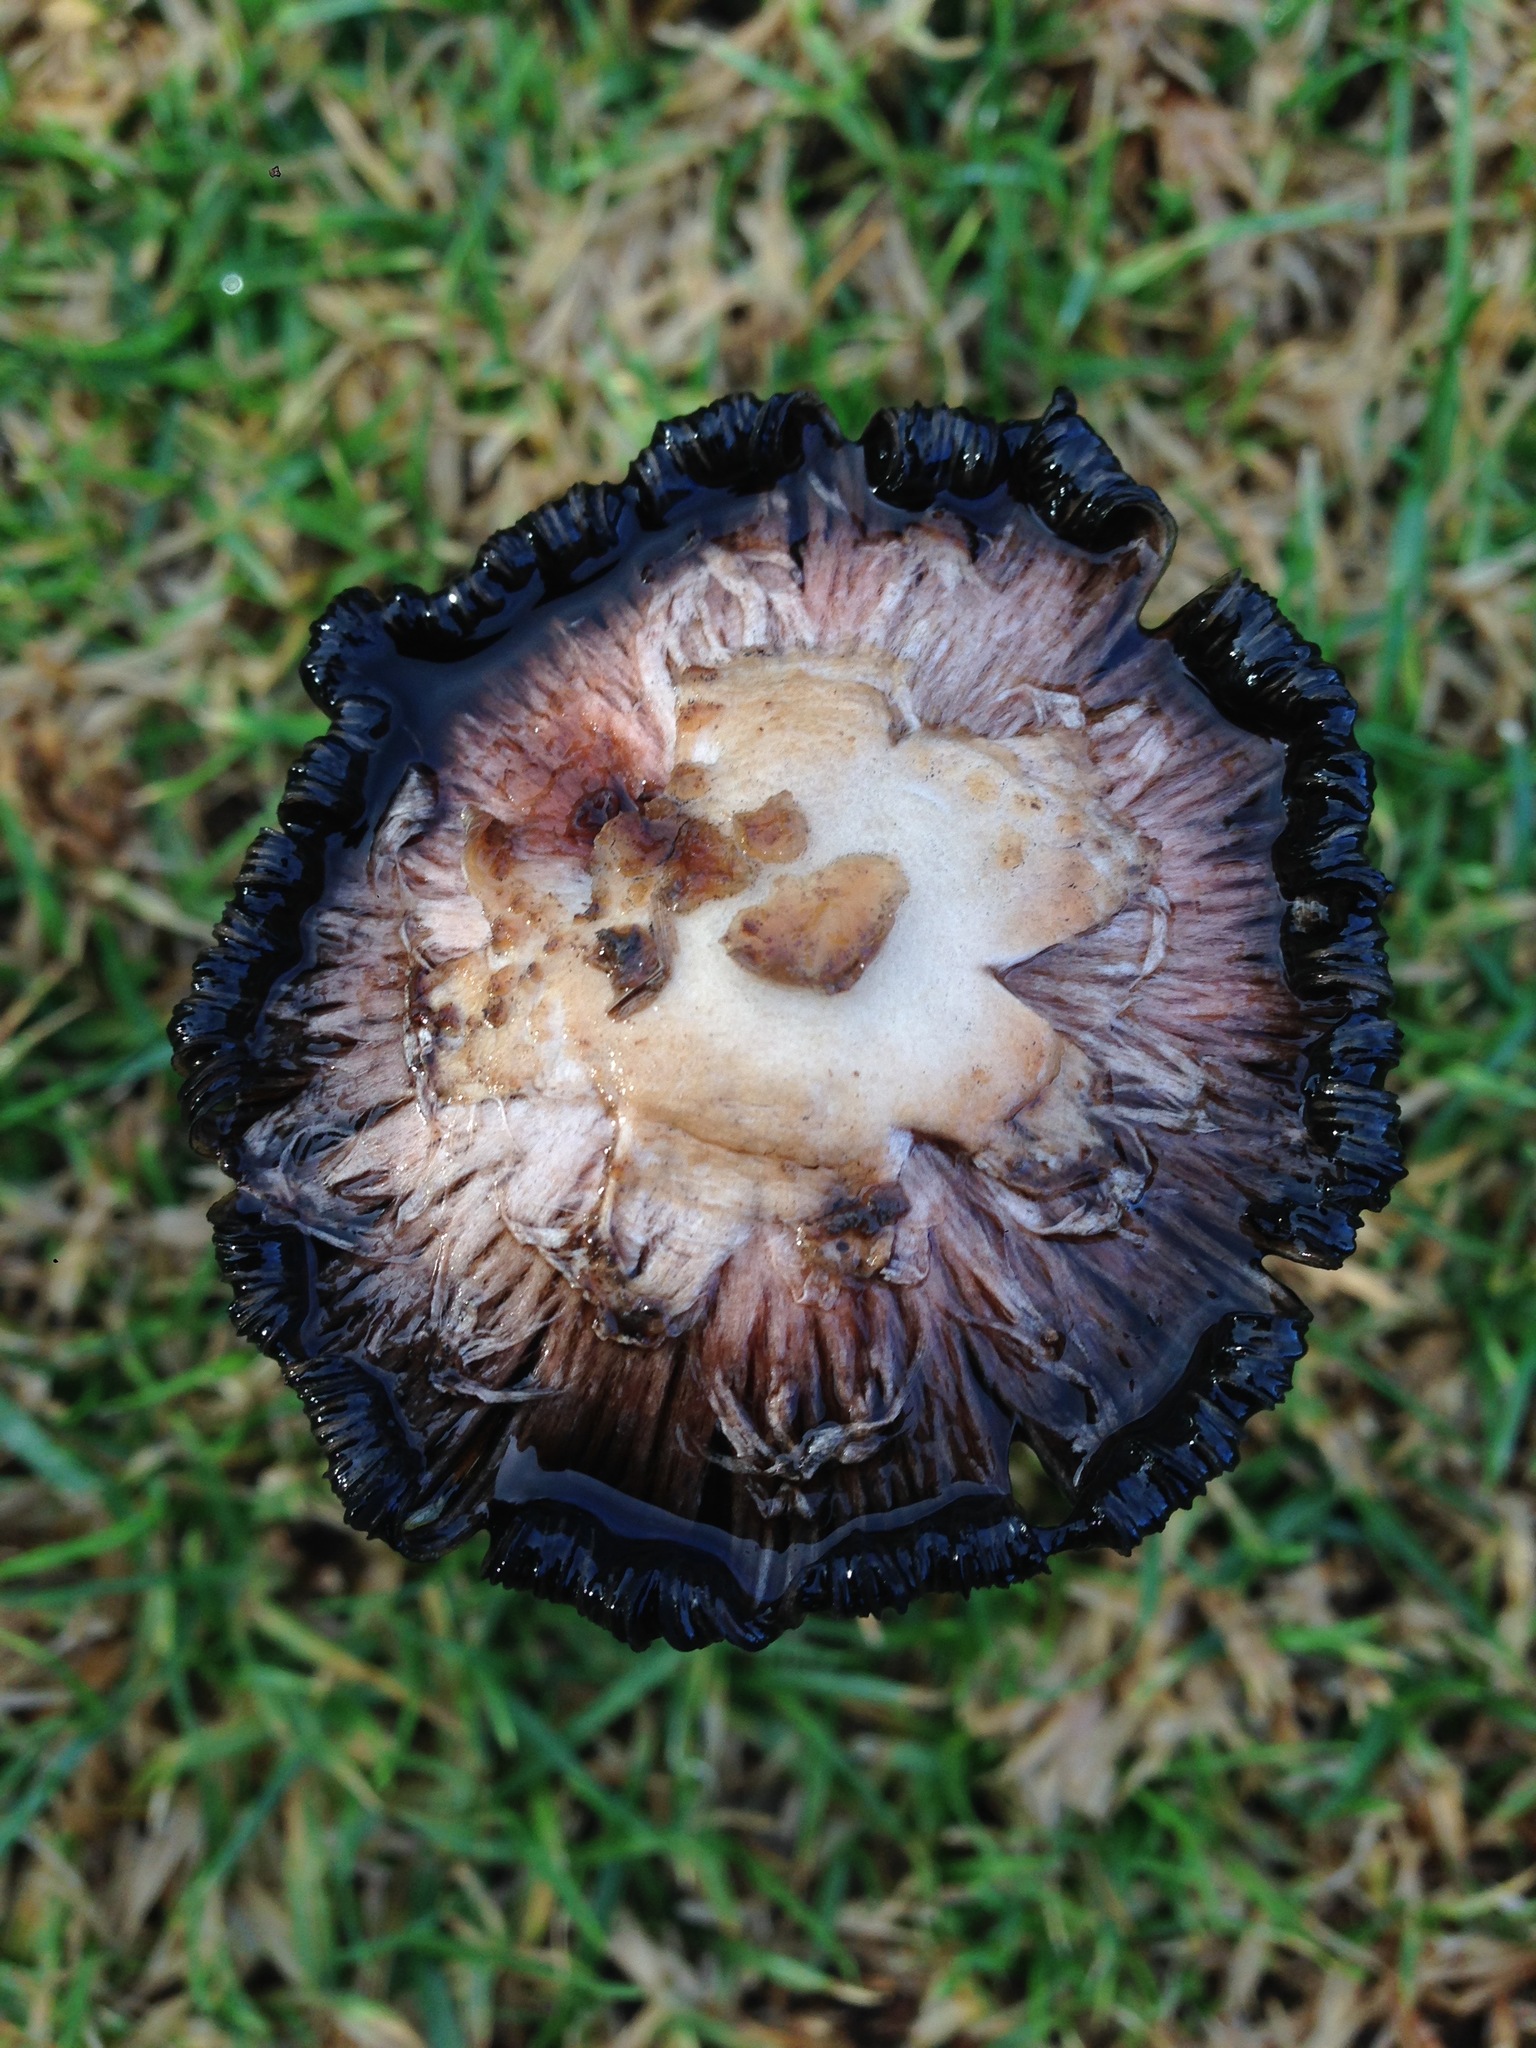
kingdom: Fungi
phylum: Basidiomycota
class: Agaricomycetes
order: Agaricales
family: Agaricaceae
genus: Coprinus
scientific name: Coprinus comatus
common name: Lawyer's wig
